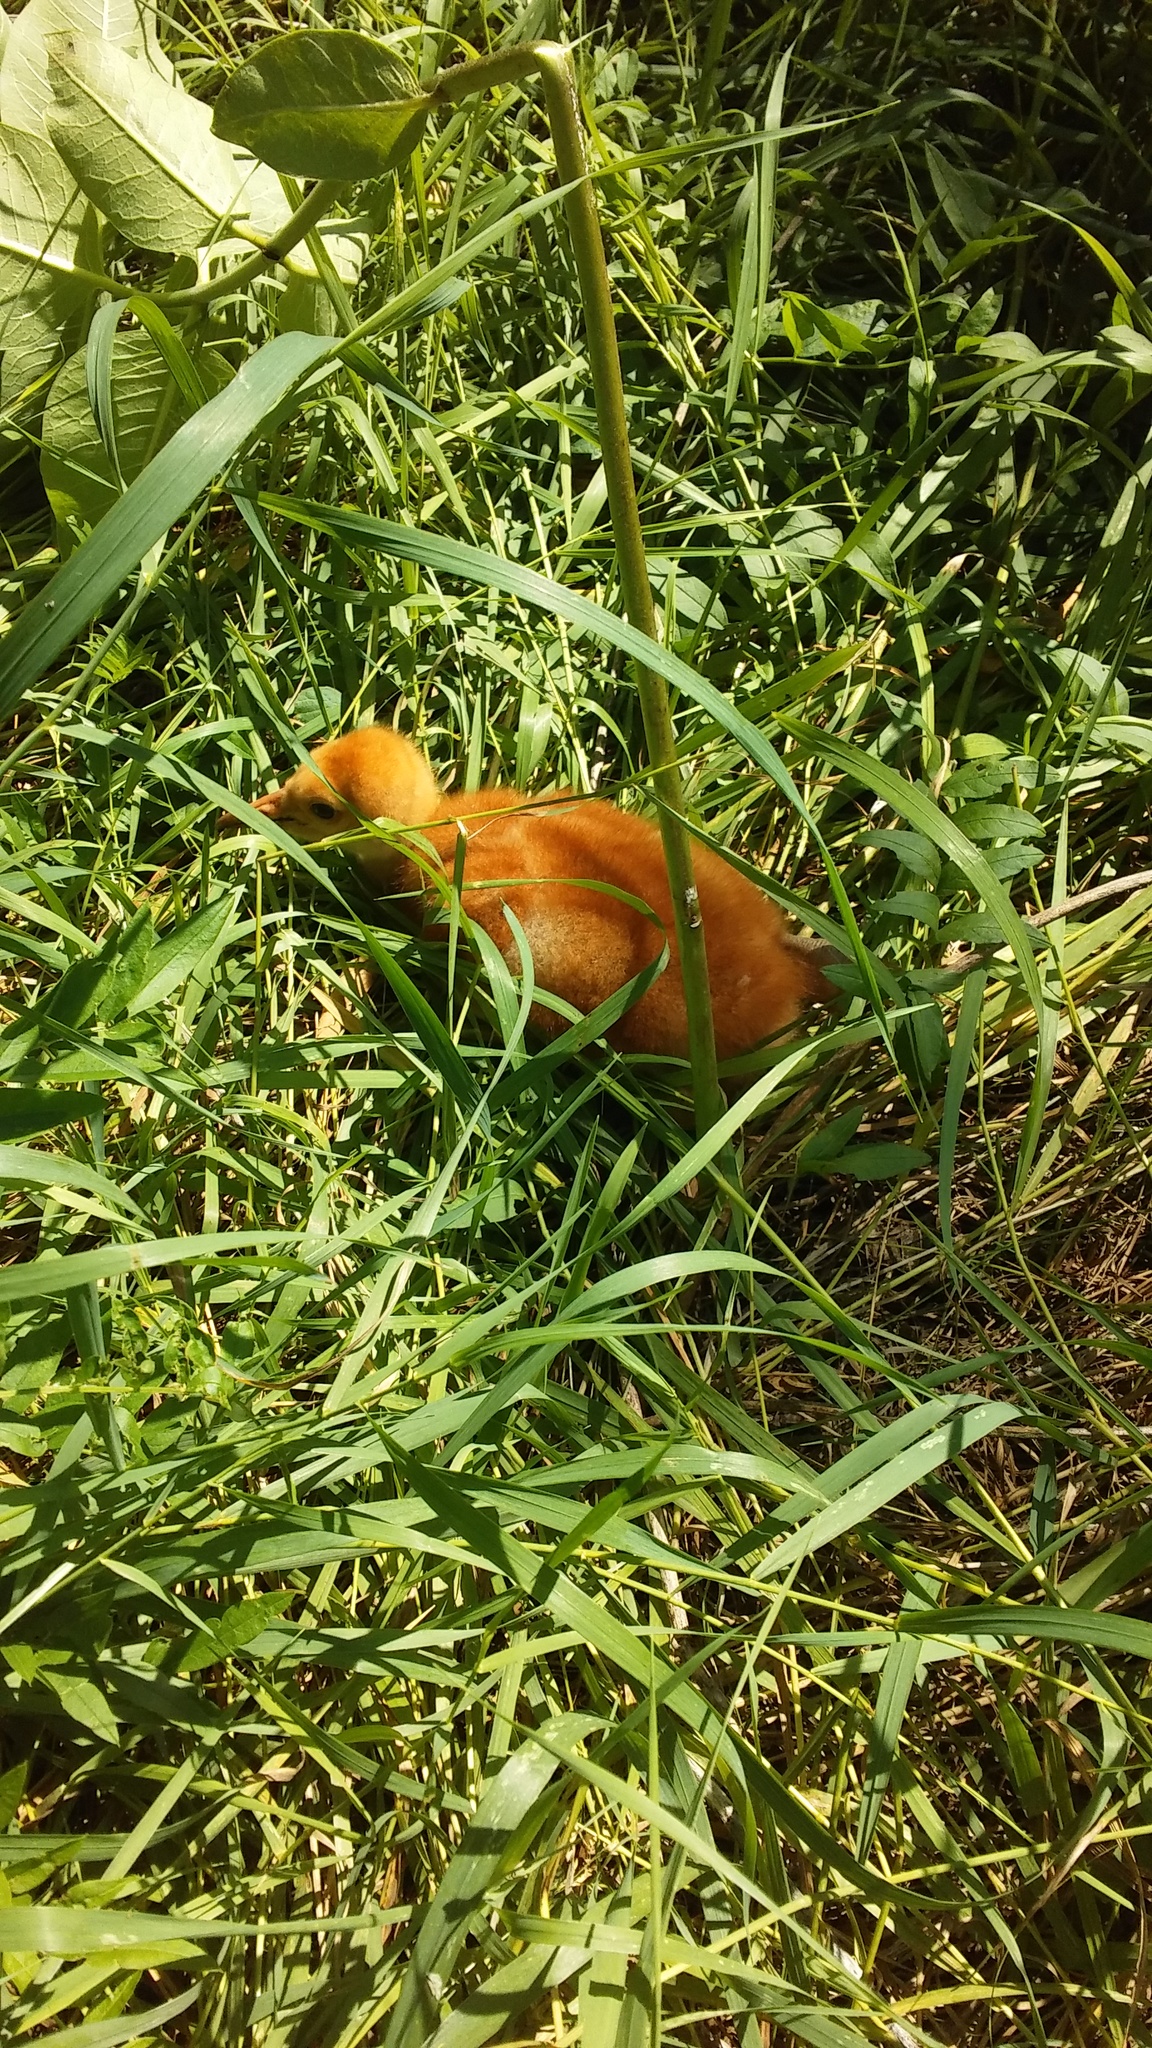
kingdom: Animalia
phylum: Chordata
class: Aves
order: Gruiformes
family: Gruidae
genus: Grus
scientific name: Grus canadensis
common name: Sandhill crane
